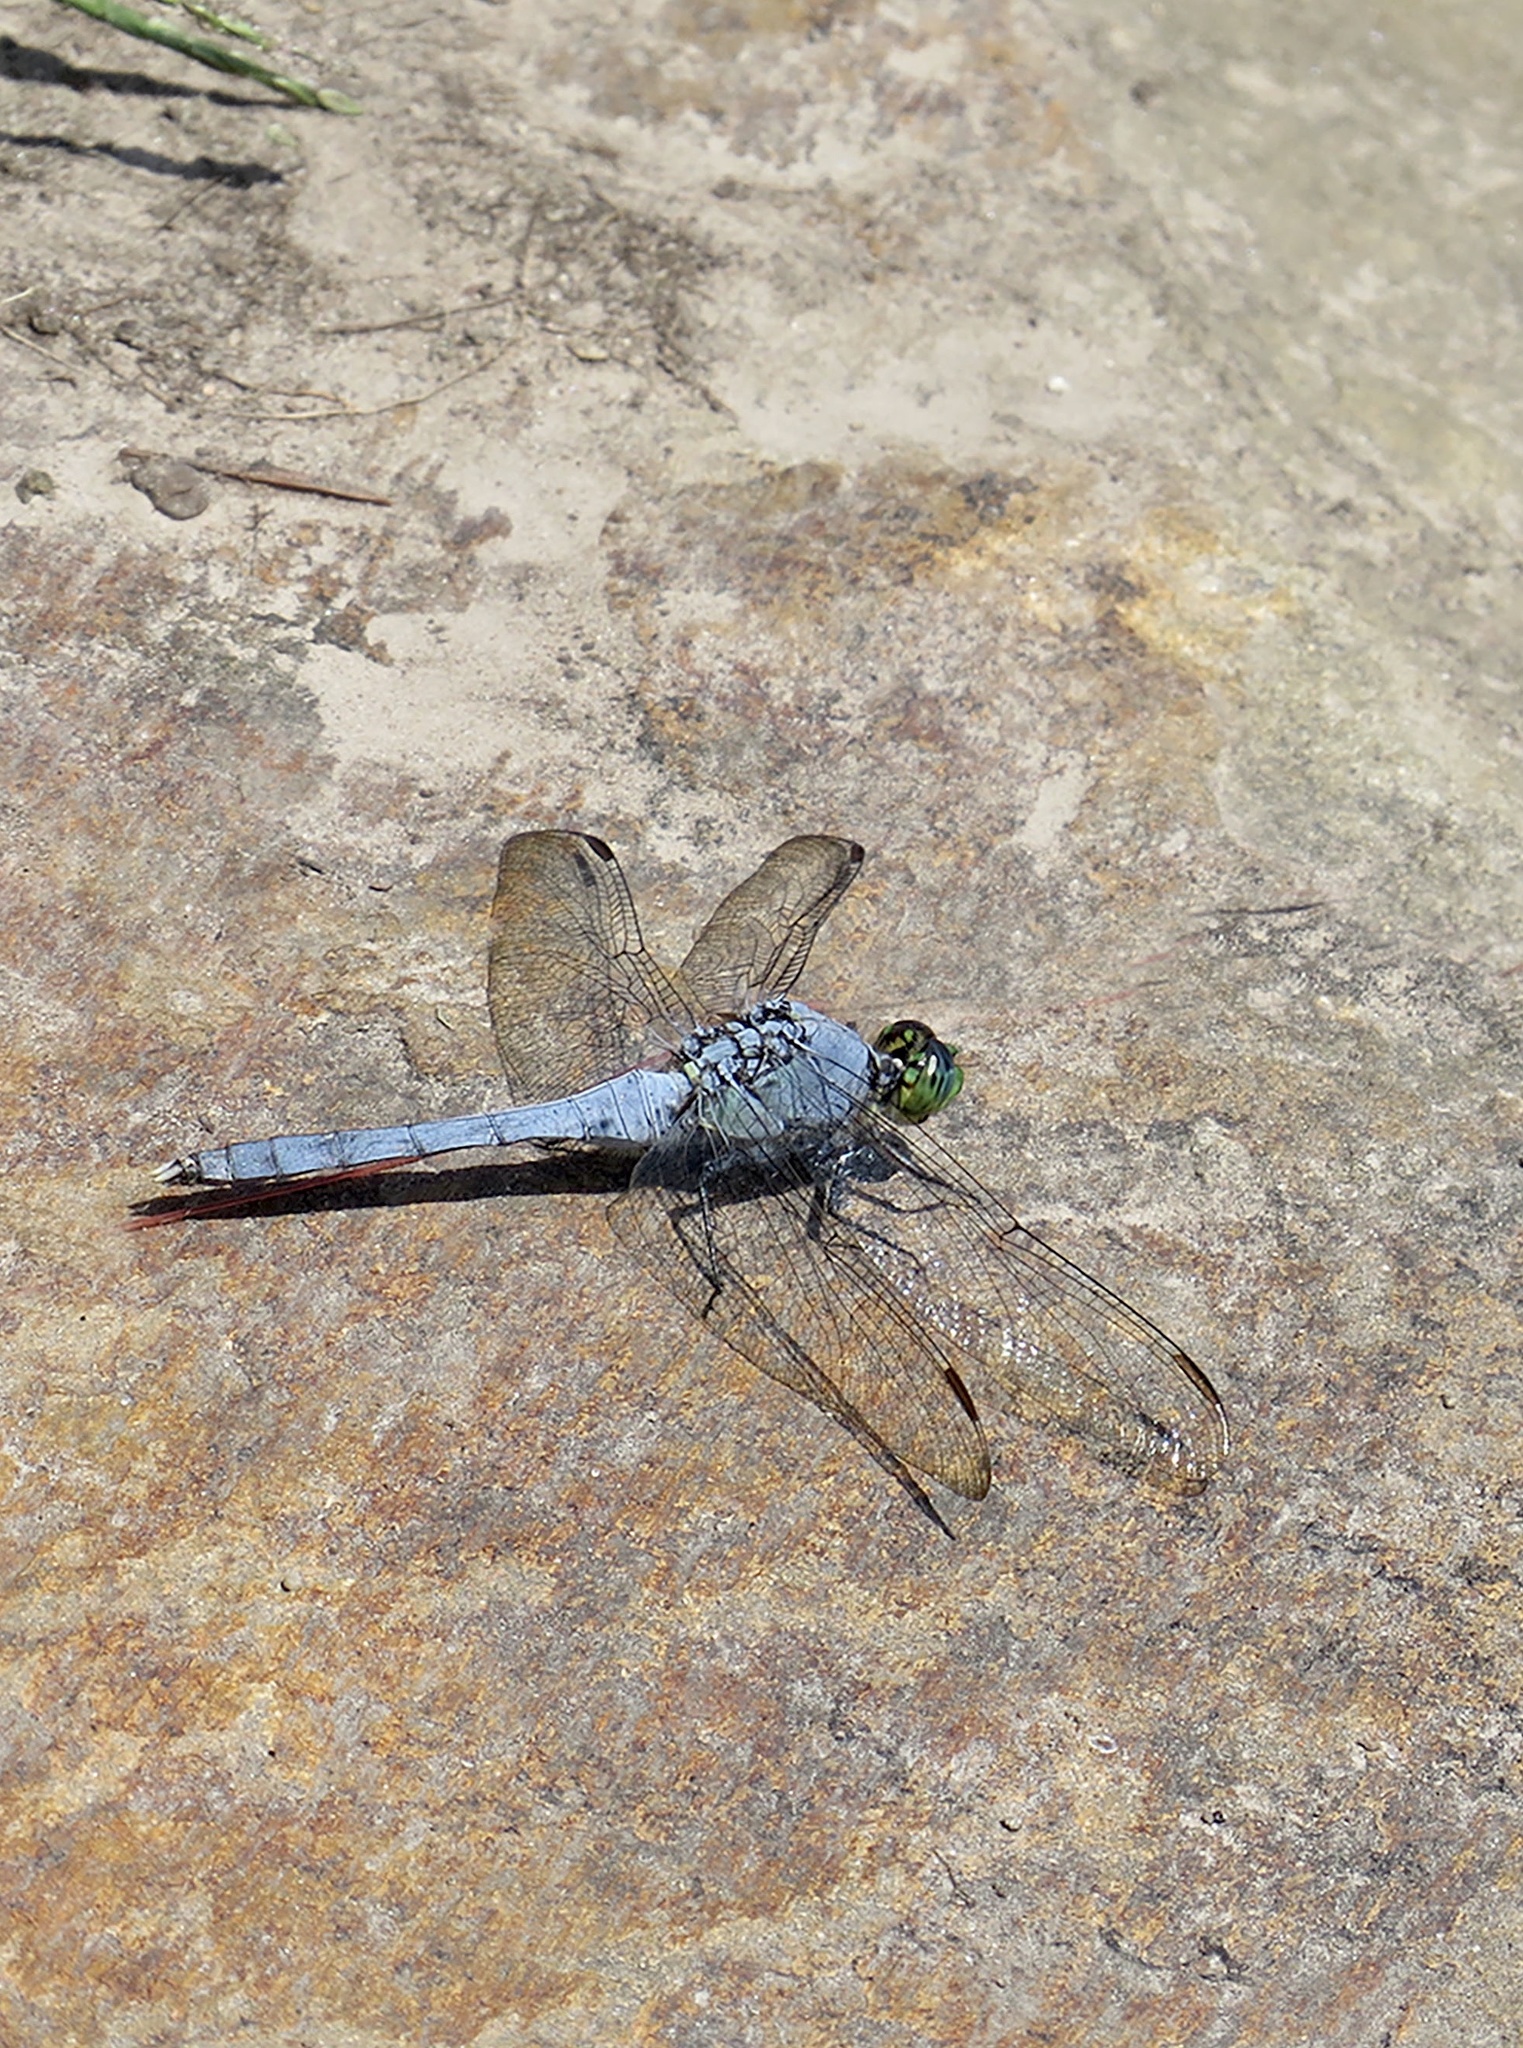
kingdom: Animalia
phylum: Arthropoda
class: Insecta
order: Odonata
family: Libellulidae
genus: Erythemis
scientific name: Erythemis simplicicollis
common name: Eastern pondhawk
